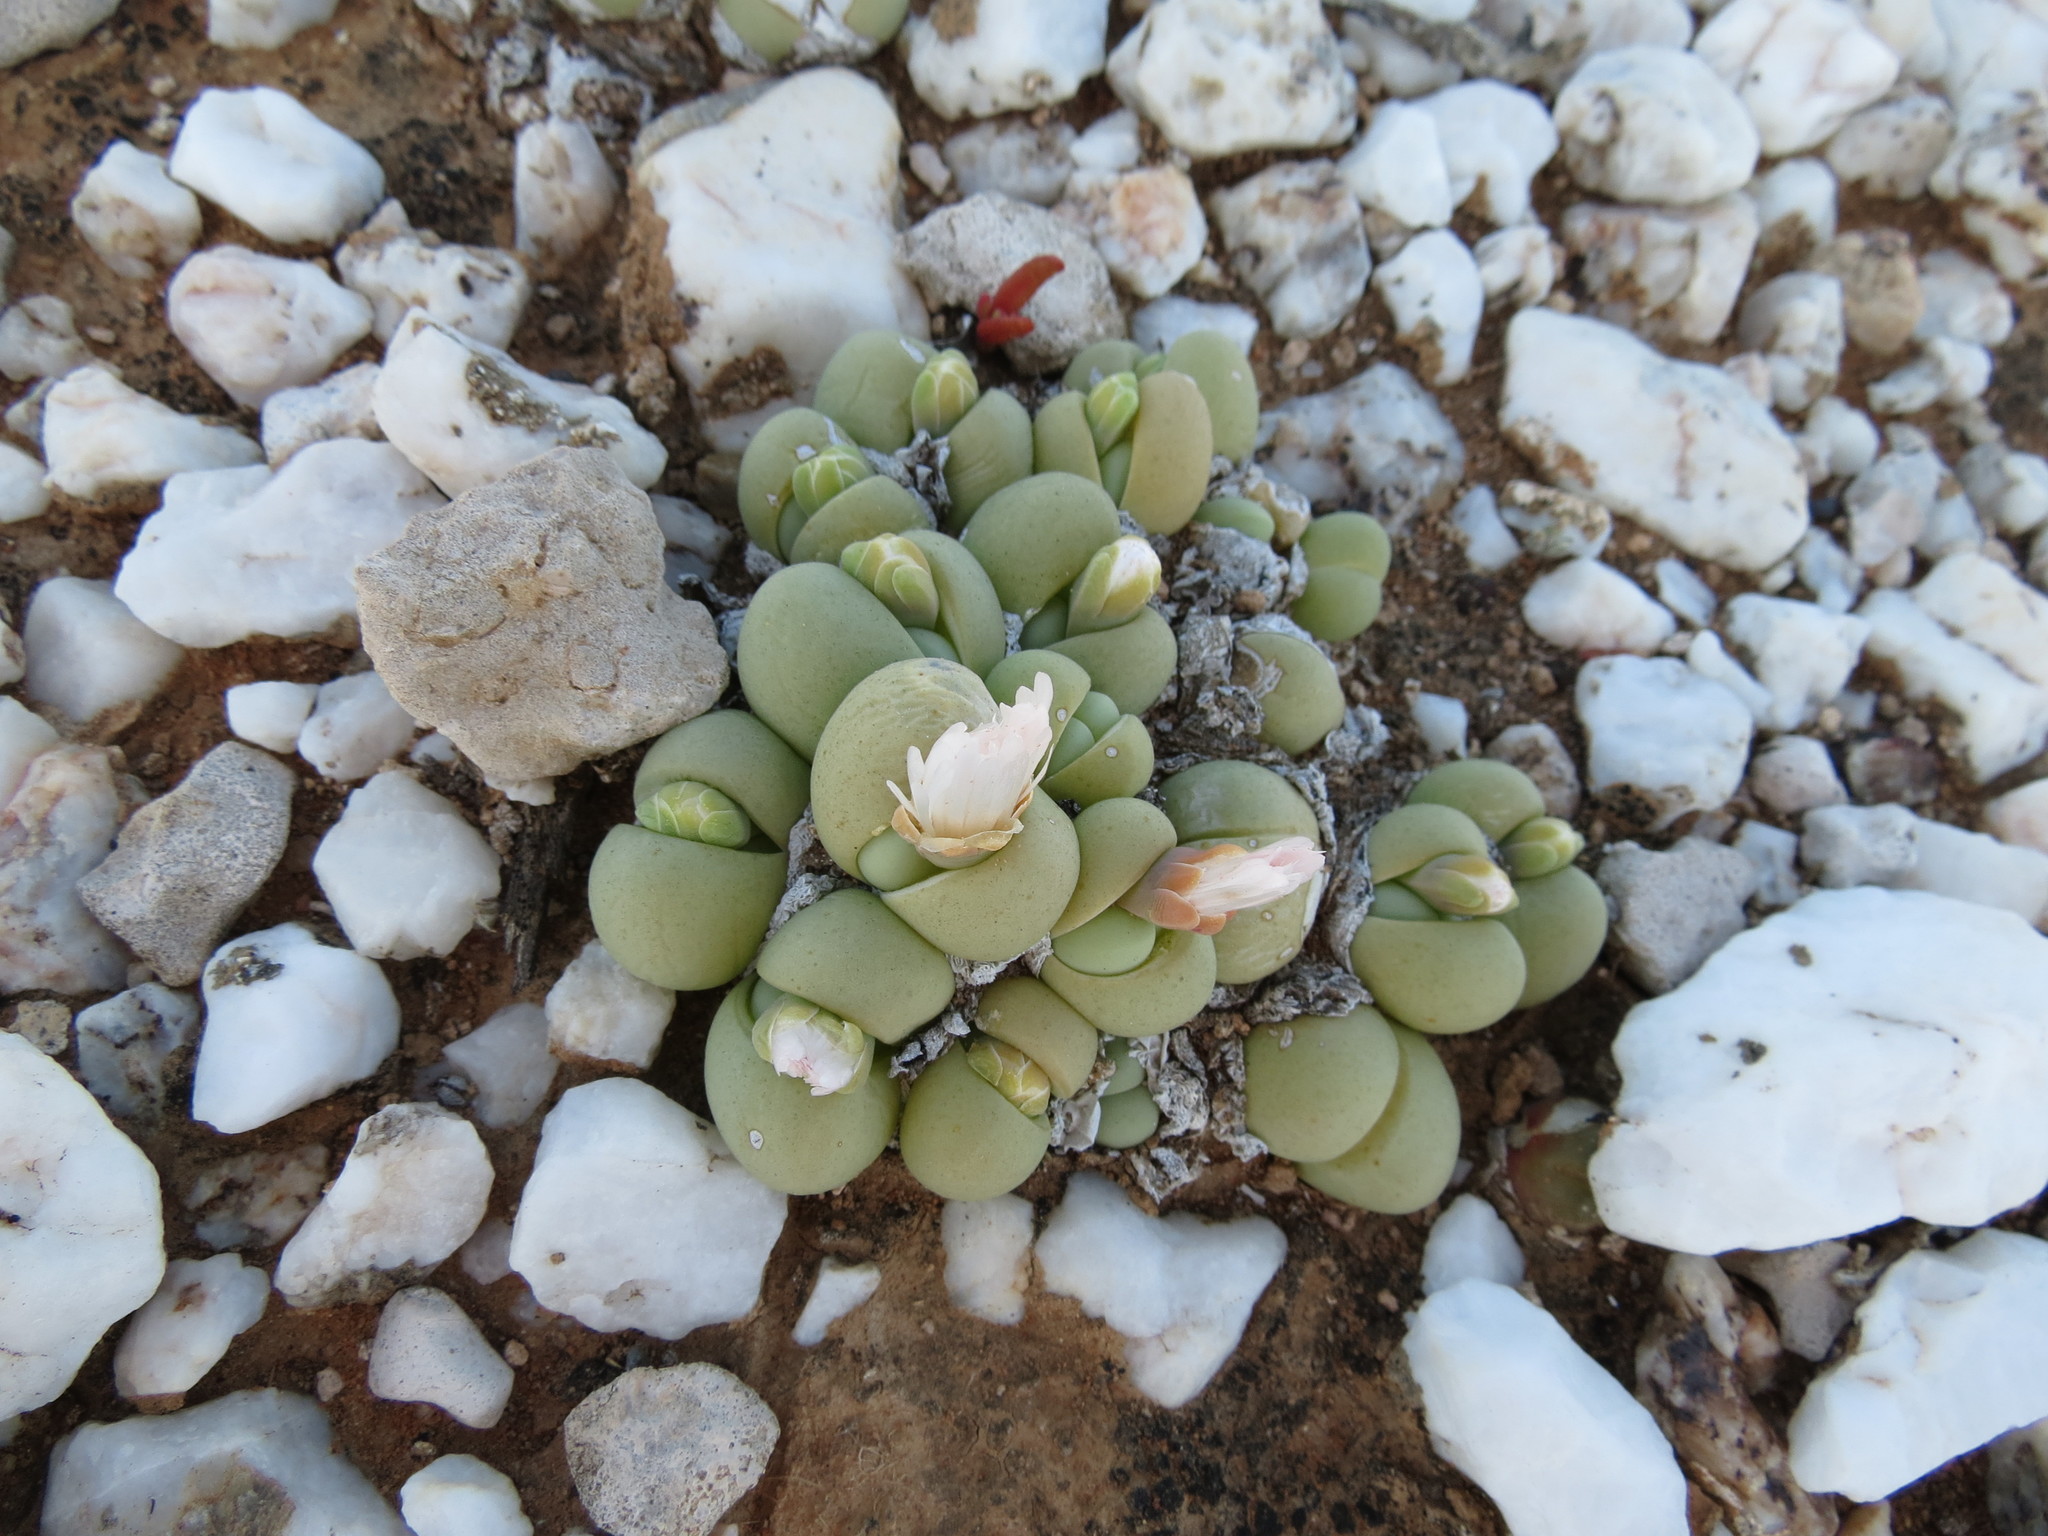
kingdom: Plantae
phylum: Tracheophyta
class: Magnoliopsida
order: Caryophyllales
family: Aizoaceae
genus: Gibbaeum
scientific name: Gibbaeum heathii
